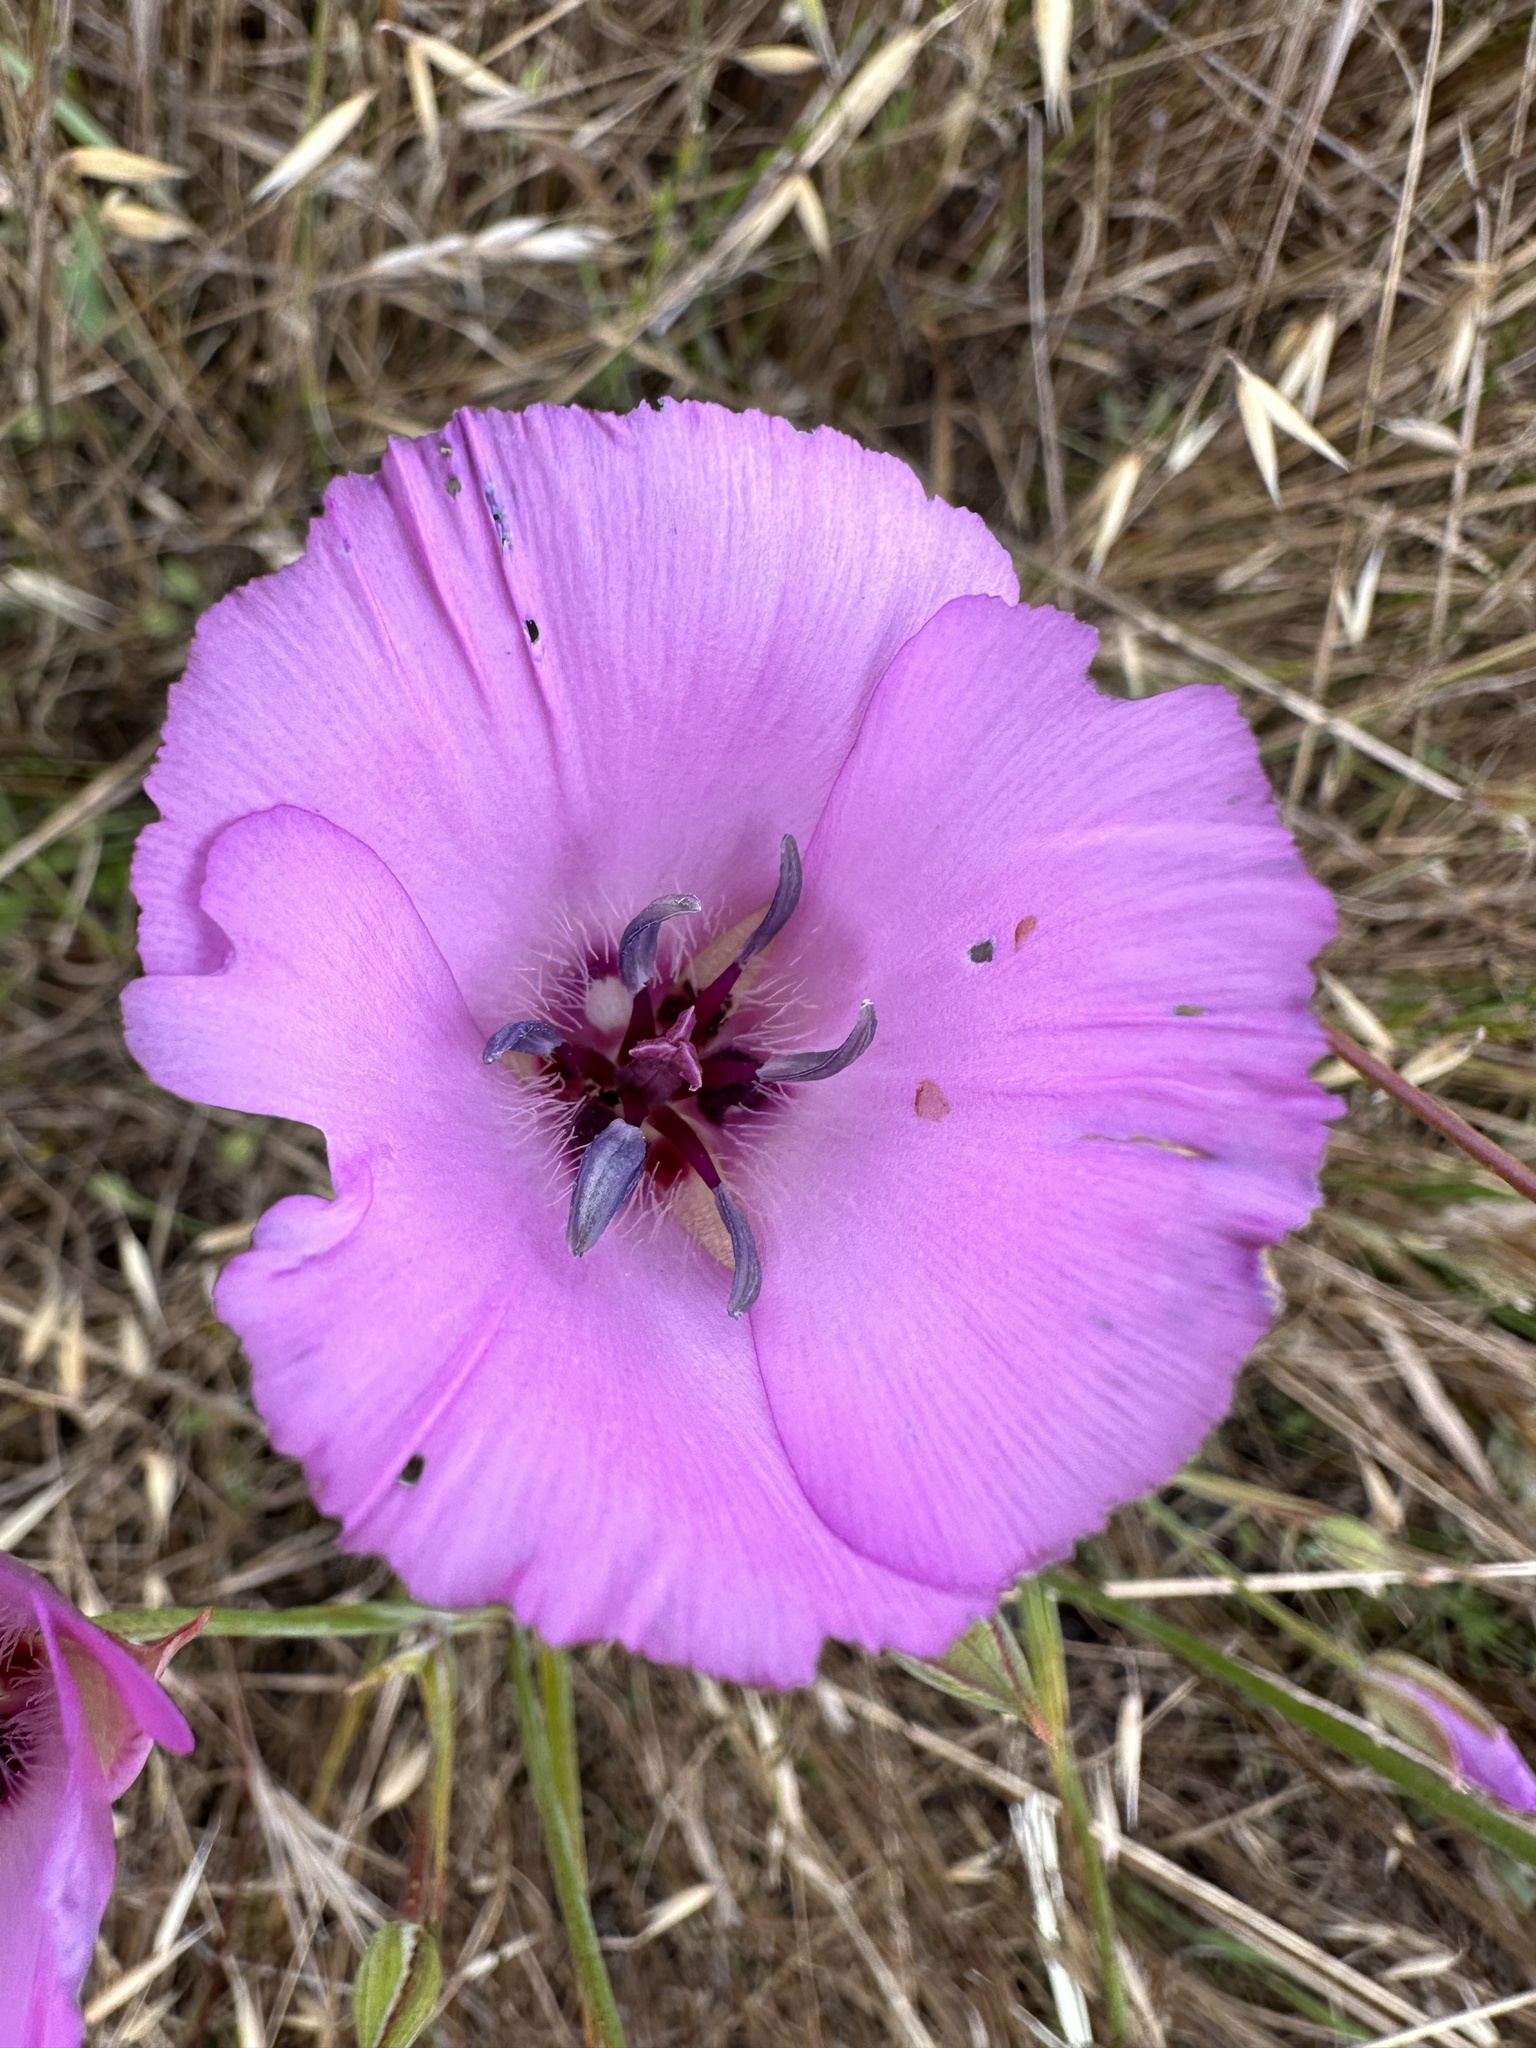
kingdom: Plantae
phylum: Tracheophyta
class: Liliopsida
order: Liliales
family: Liliaceae
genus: Calochortus
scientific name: Calochortus splendens
